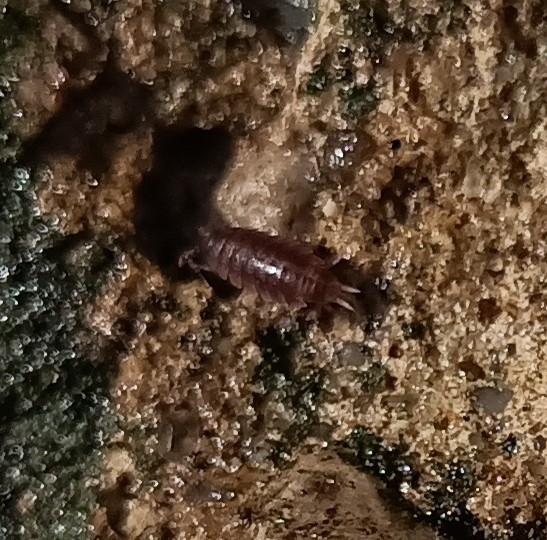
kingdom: Animalia
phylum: Arthropoda
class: Malacostraca
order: Isopoda
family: Trichoniscidae
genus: Hyloniscus
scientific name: Hyloniscus riparius
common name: Isopod
